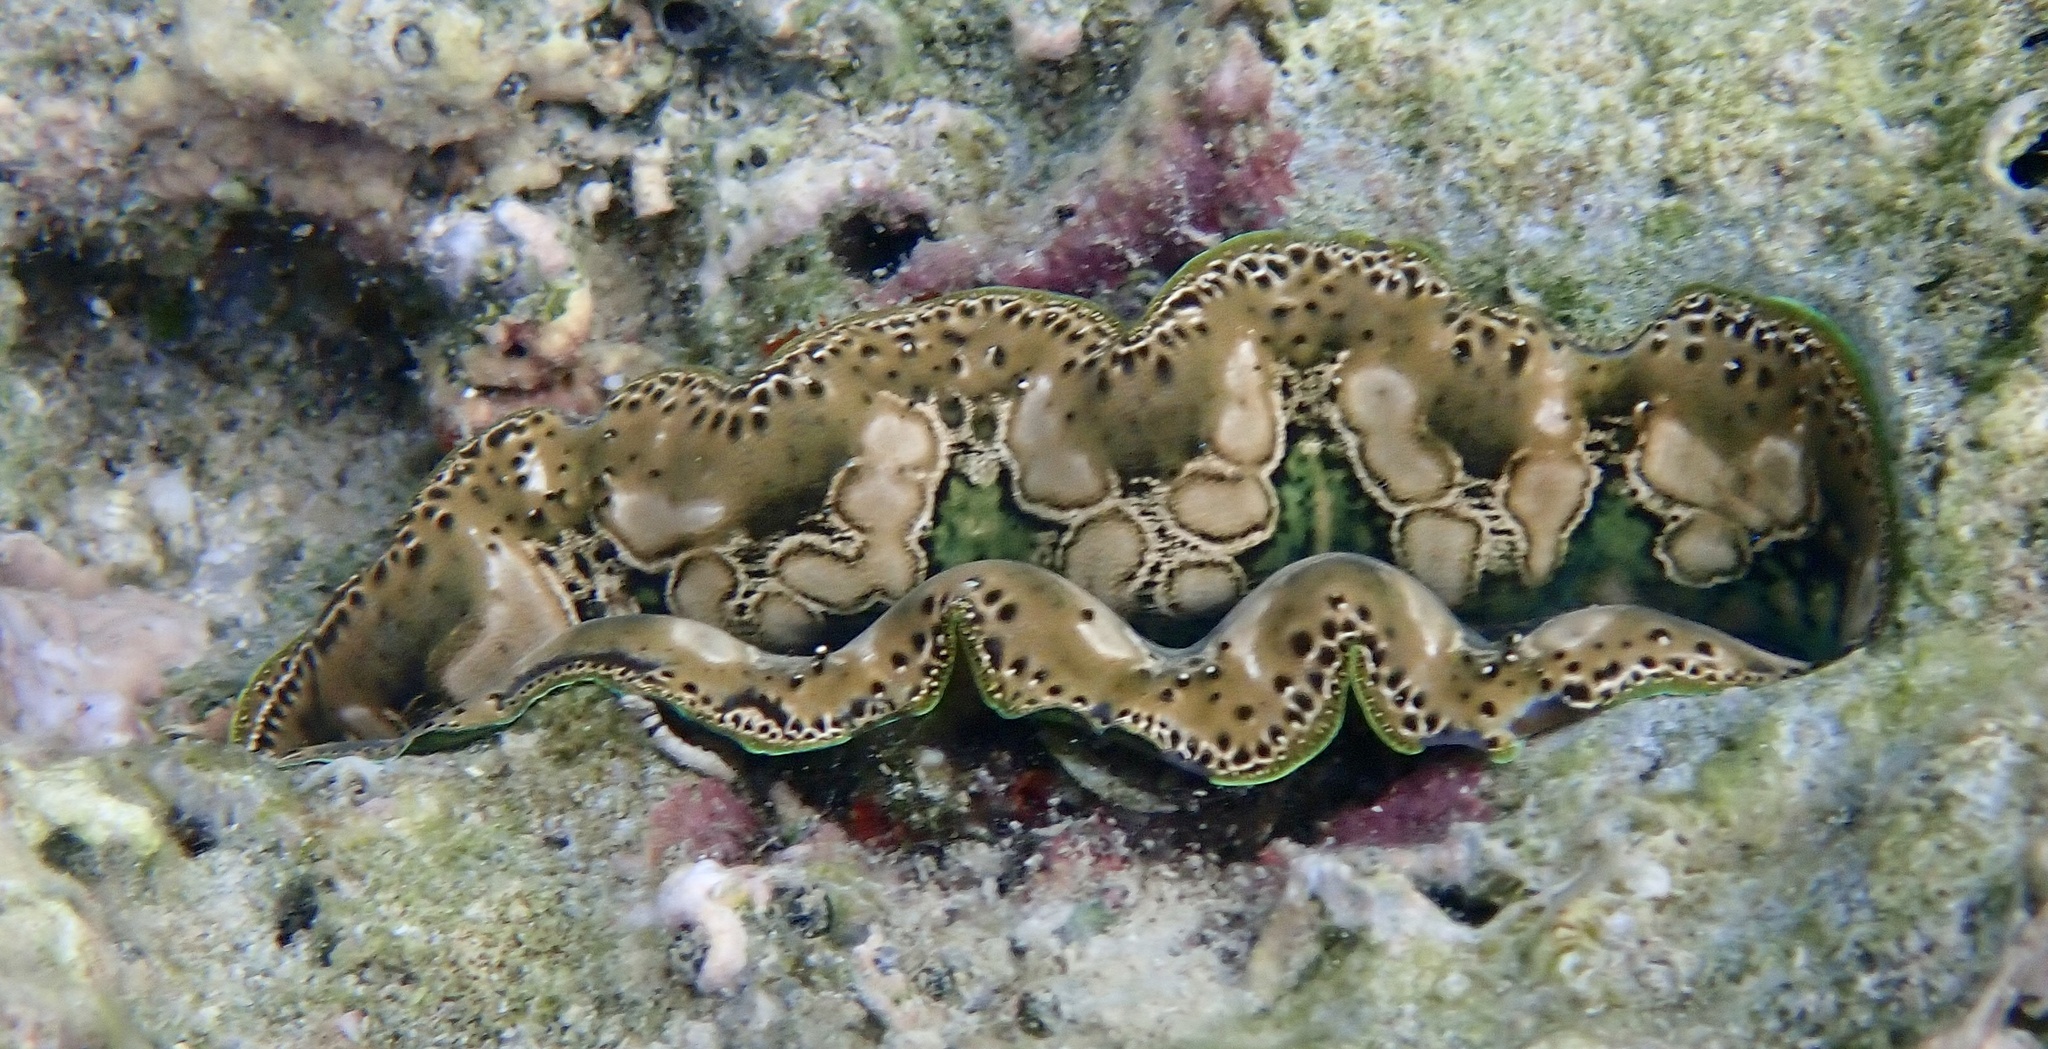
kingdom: Animalia
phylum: Mollusca
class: Bivalvia
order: Cardiida
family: Cardiidae
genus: Tridacna
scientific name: Tridacna crocea
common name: Boring clam
